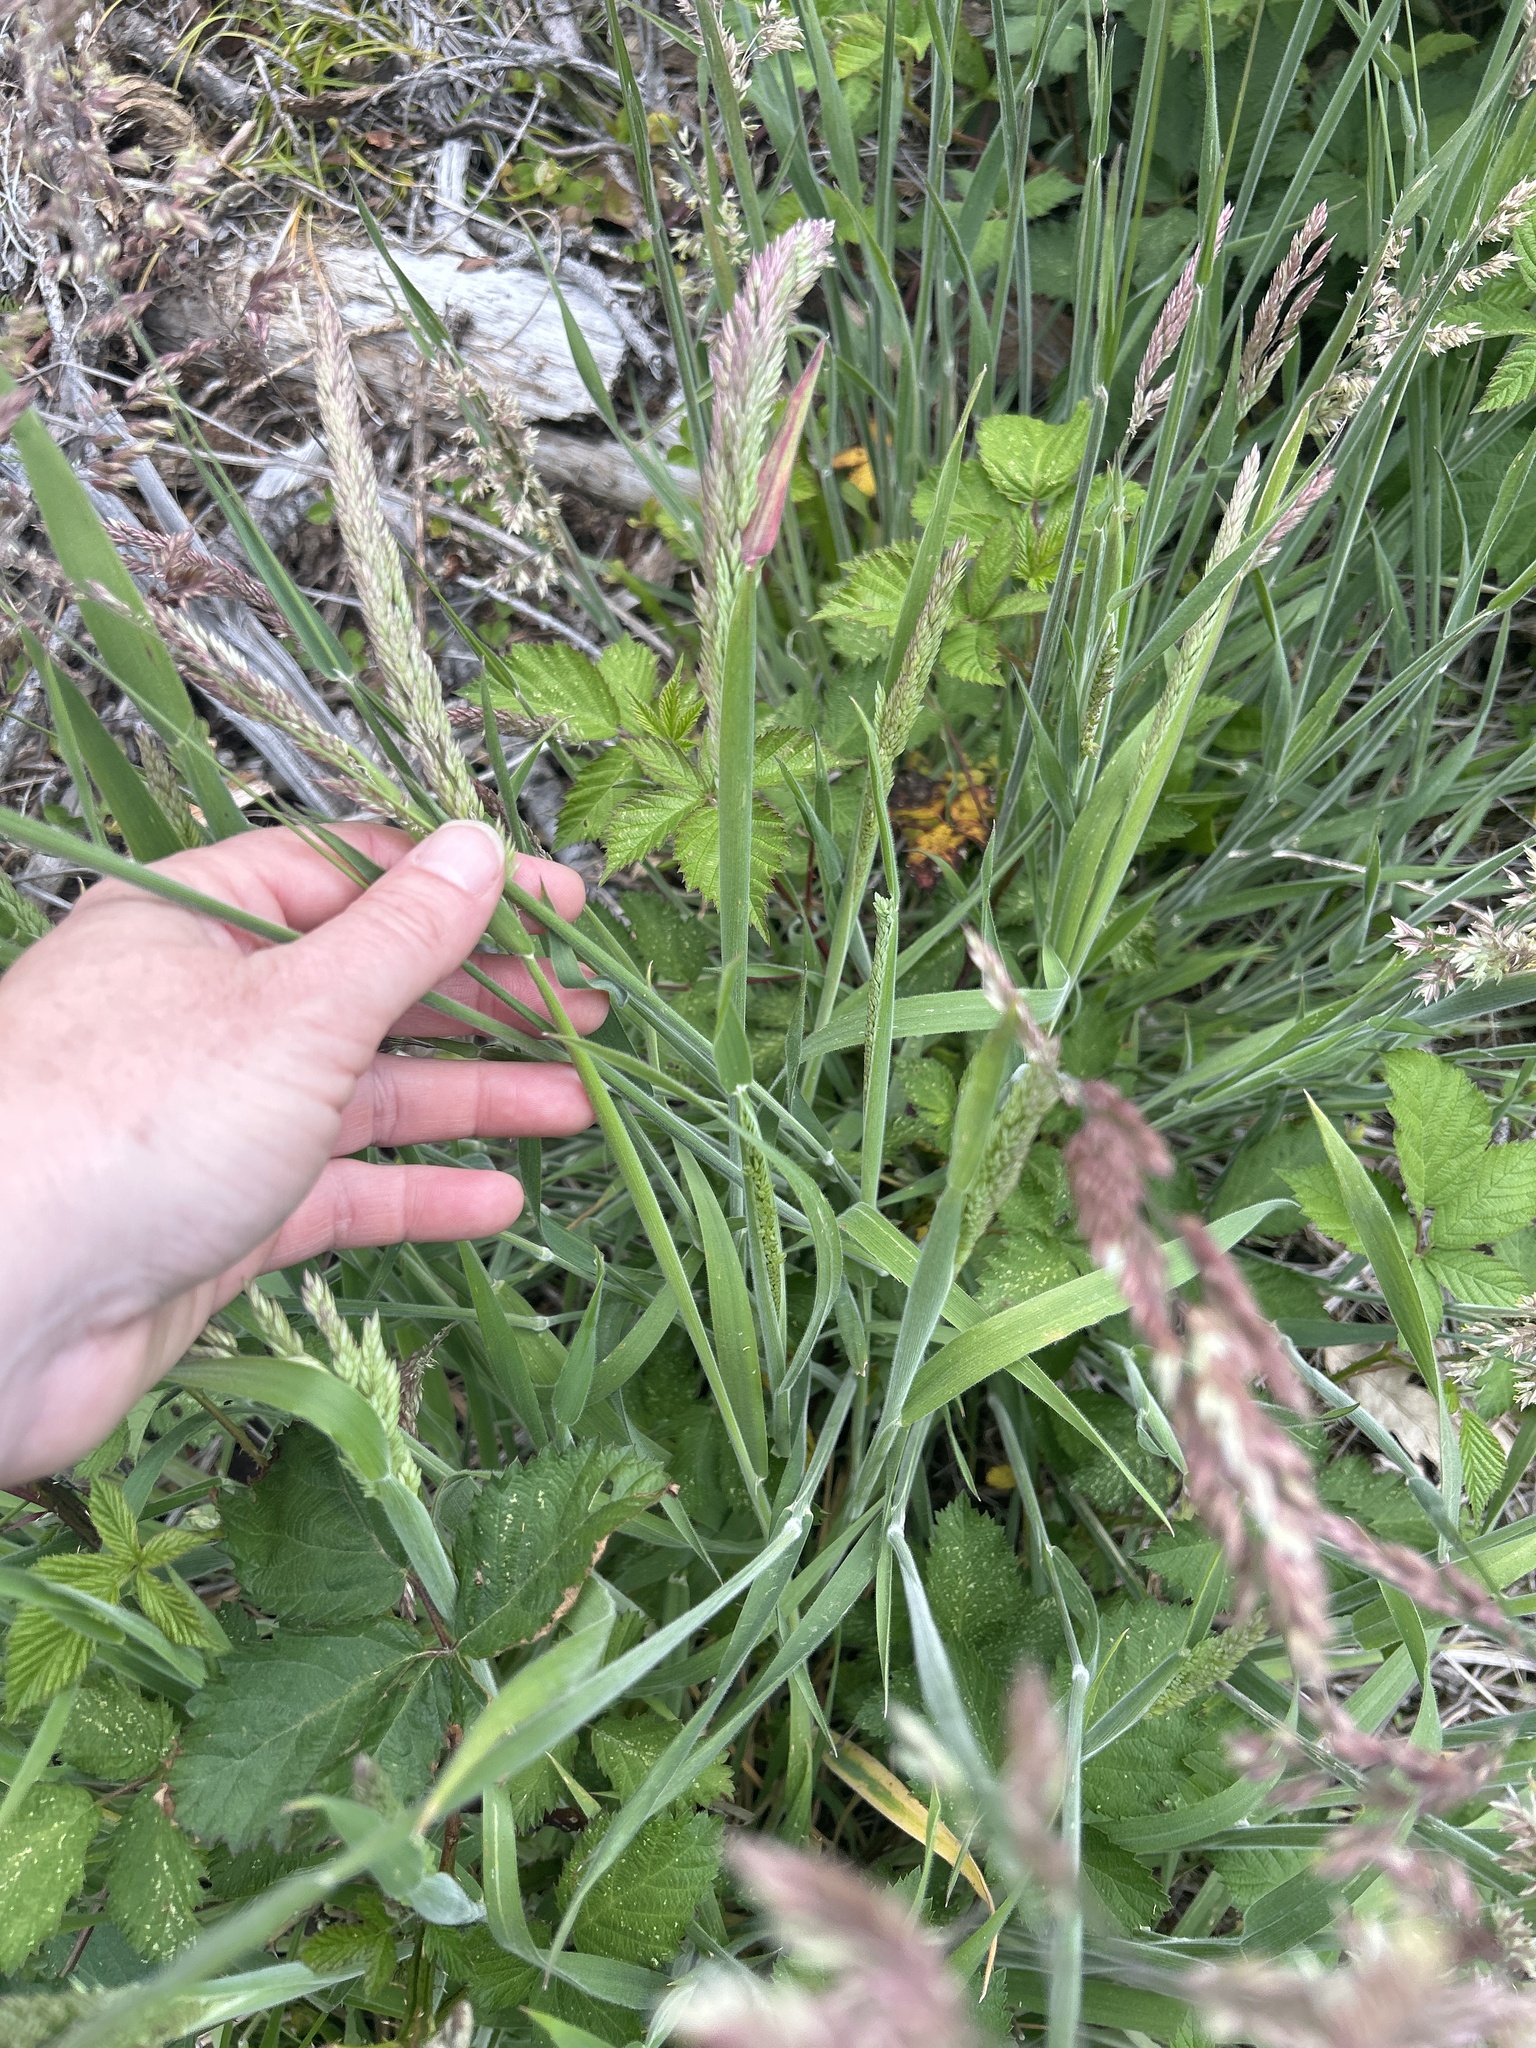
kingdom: Plantae
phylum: Tracheophyta
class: Liliopsida
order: Poales
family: Poaceae
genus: Holcus
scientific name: Holcus lanatus
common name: Yorkshire-fog
